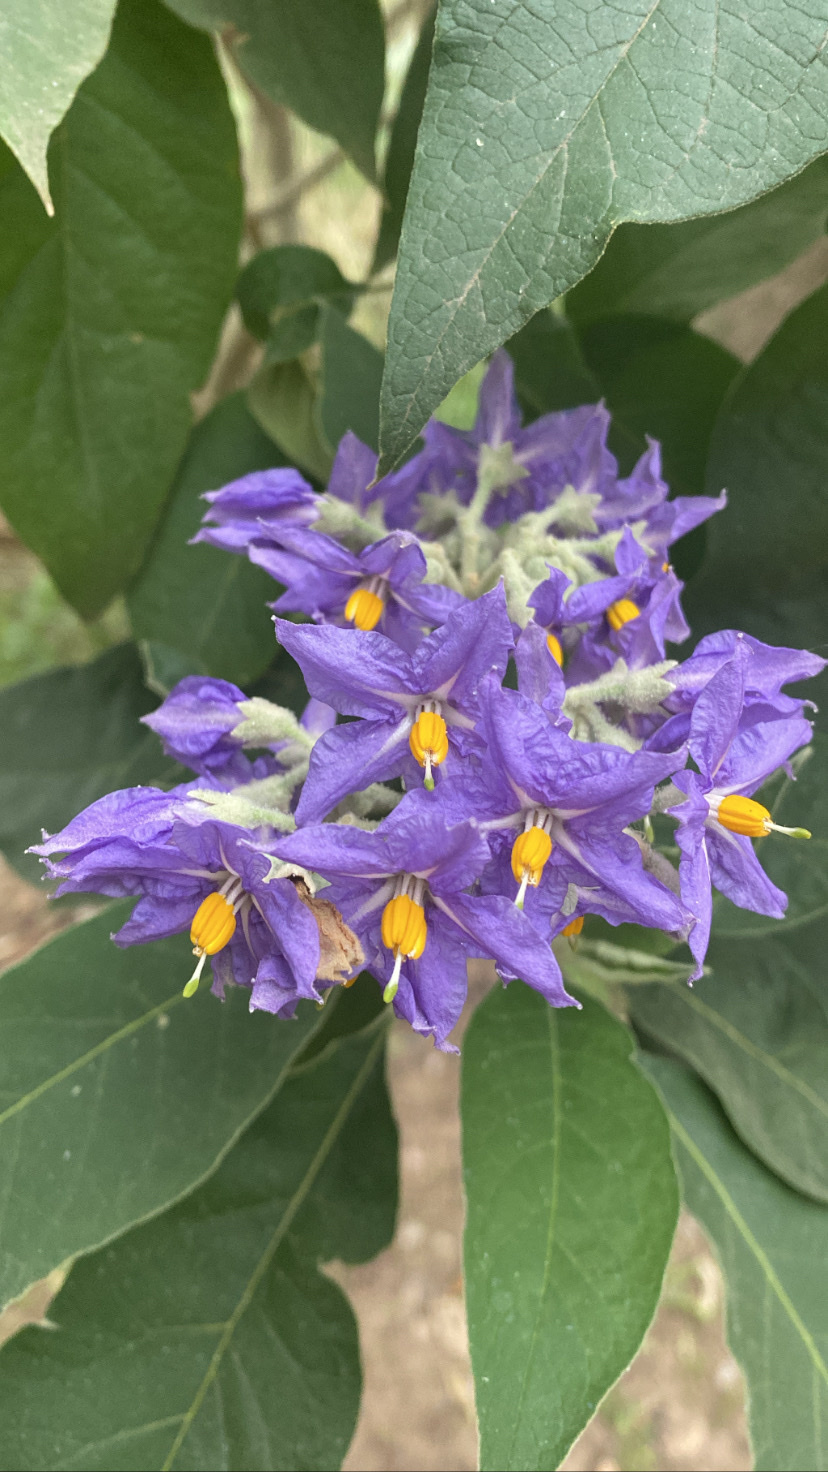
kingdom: Plantae
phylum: Tracheophyta
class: Magnoliopsida
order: Solanales
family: Solanaceae
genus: Solanum
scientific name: Solanum granulosoleprosum
